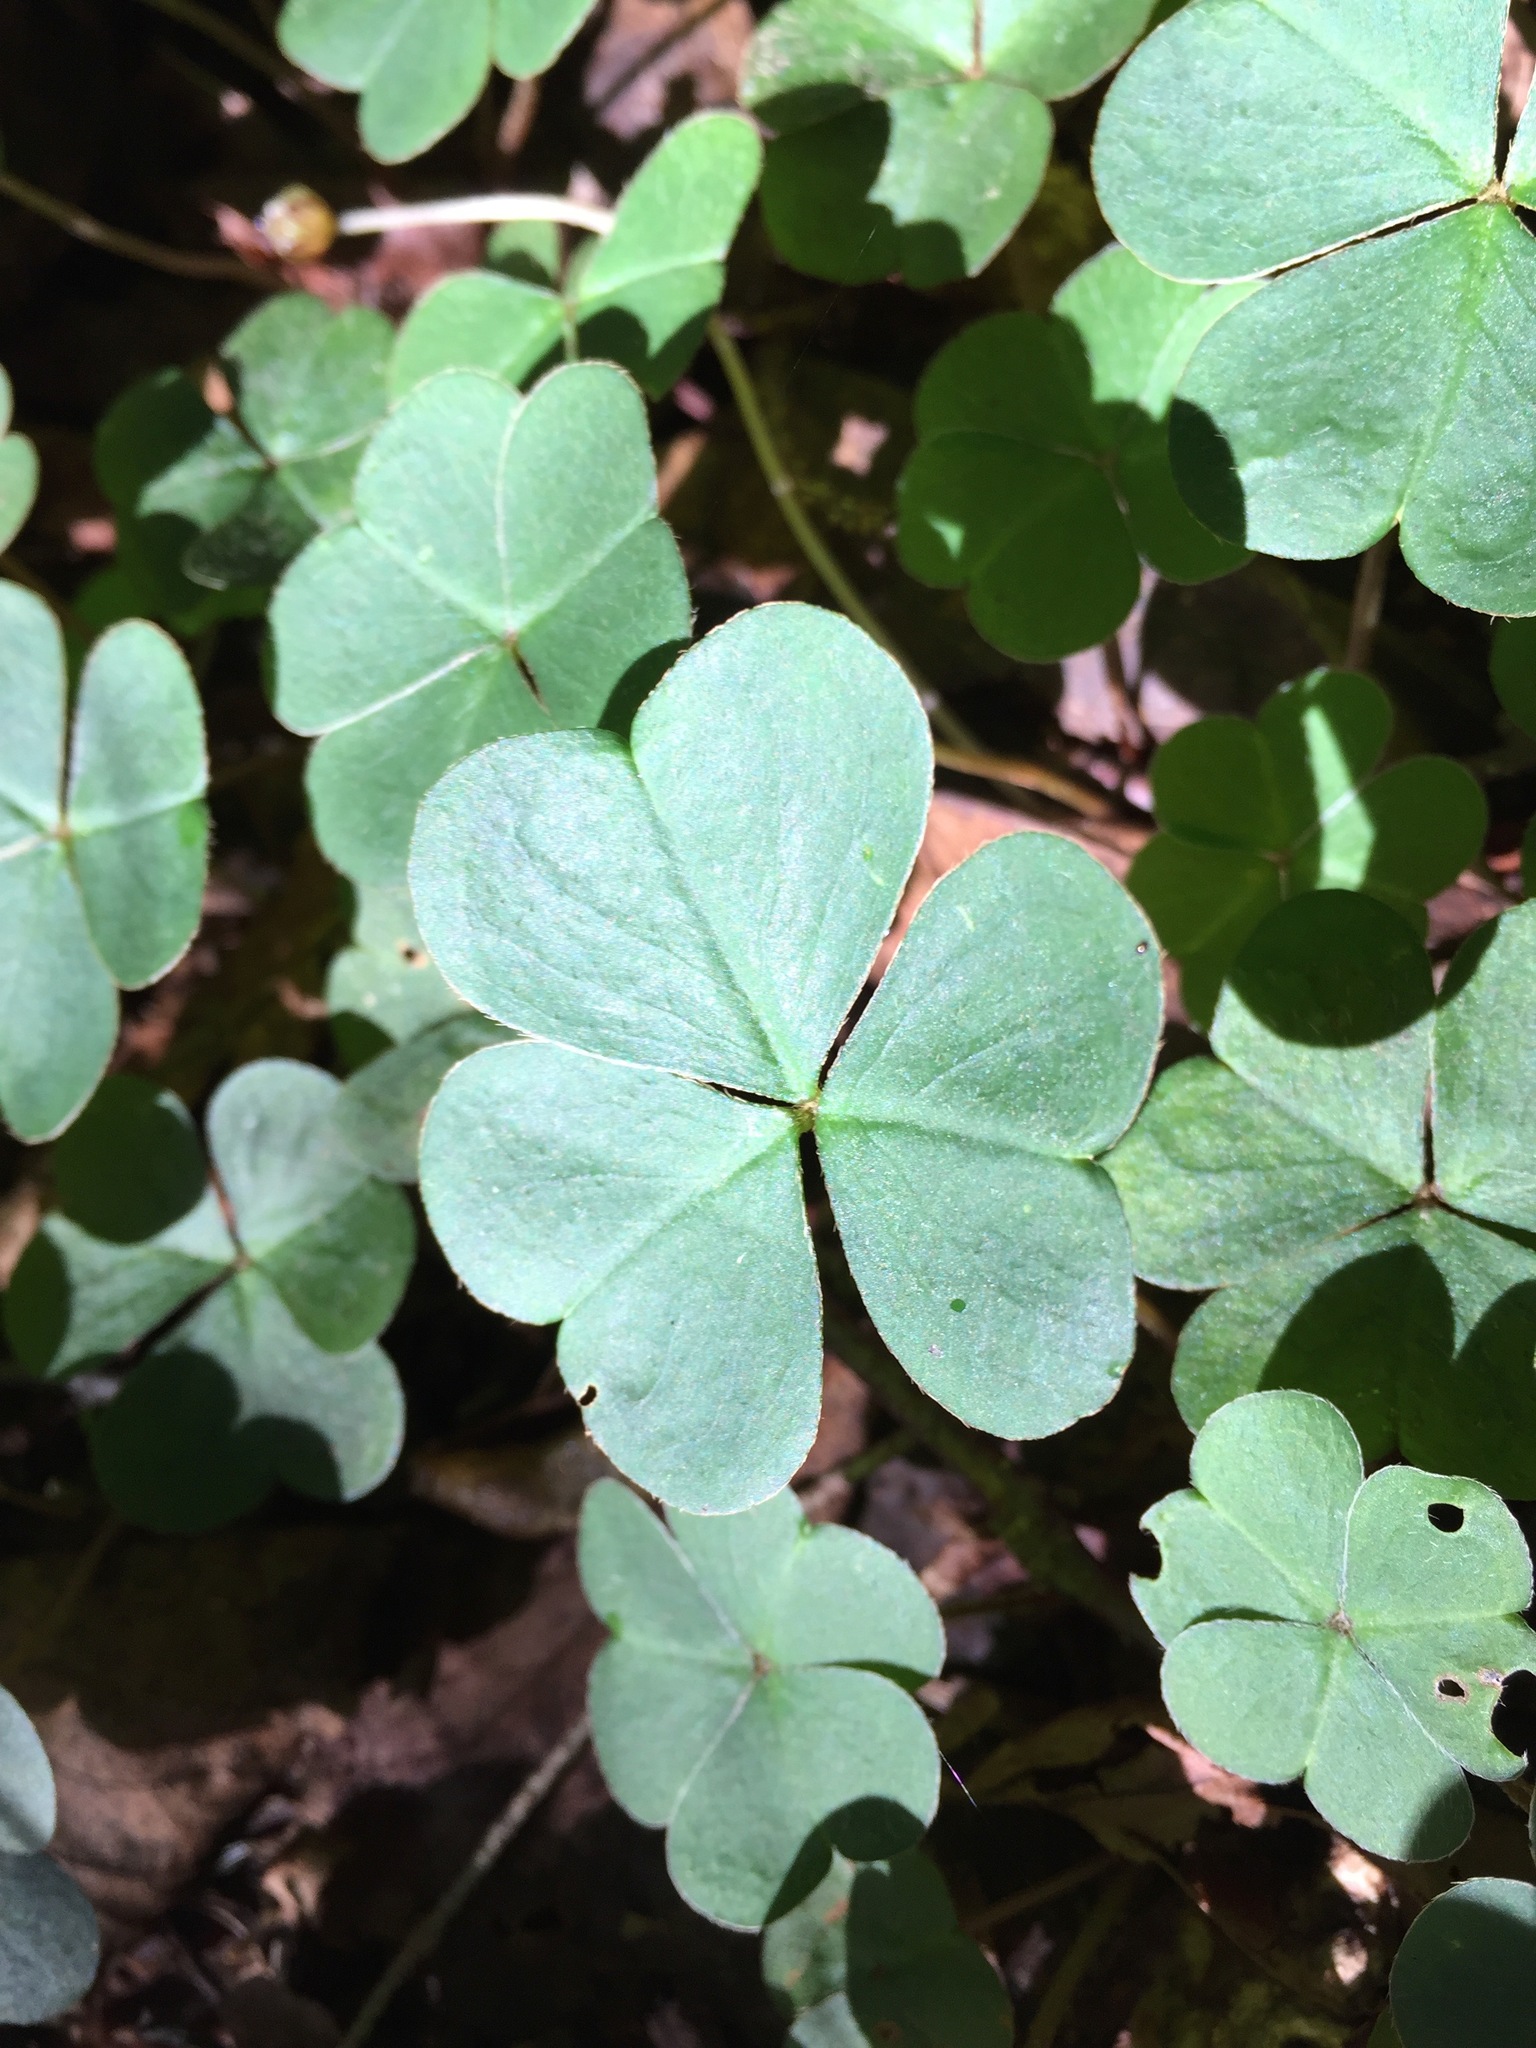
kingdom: Plantae
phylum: Tracheophyta
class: Magnoliopsida
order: Oxalidales
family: Oxalidaceae
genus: Oxalis
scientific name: Oxalis montana
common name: American wood-sorrel
